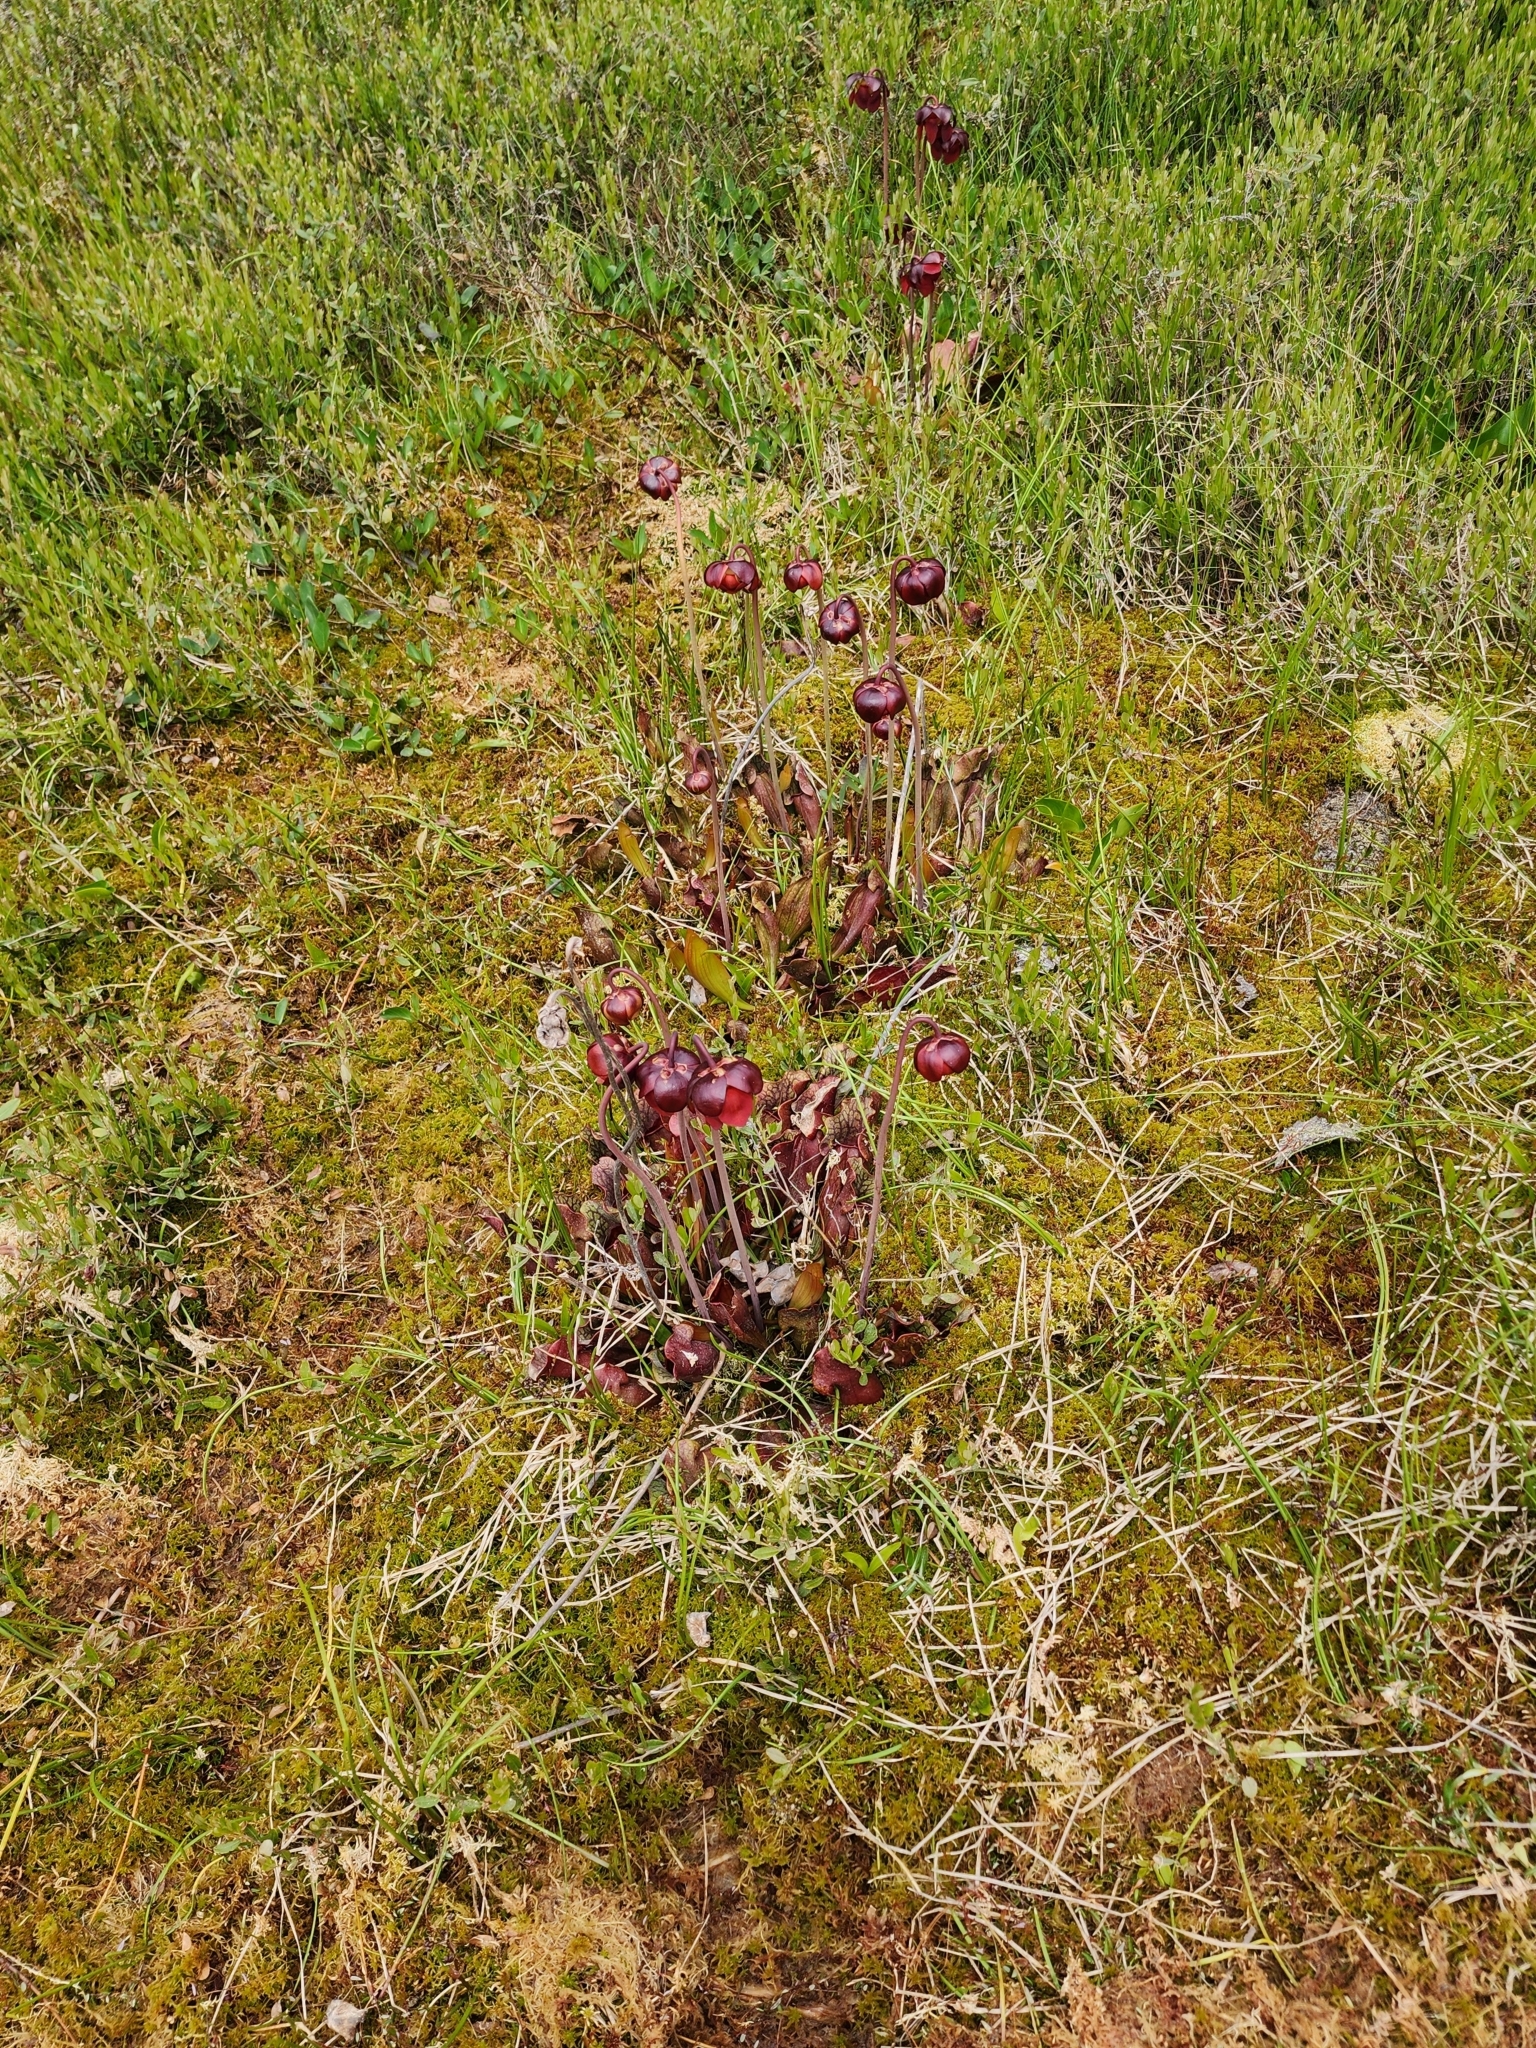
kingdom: Plantae
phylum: Tracheophyta
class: Magnoliopsida
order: Ericales
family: Sarraceniaceae
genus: Sarracenia
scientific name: Sarracenia purpurea
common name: Pitcherplant
